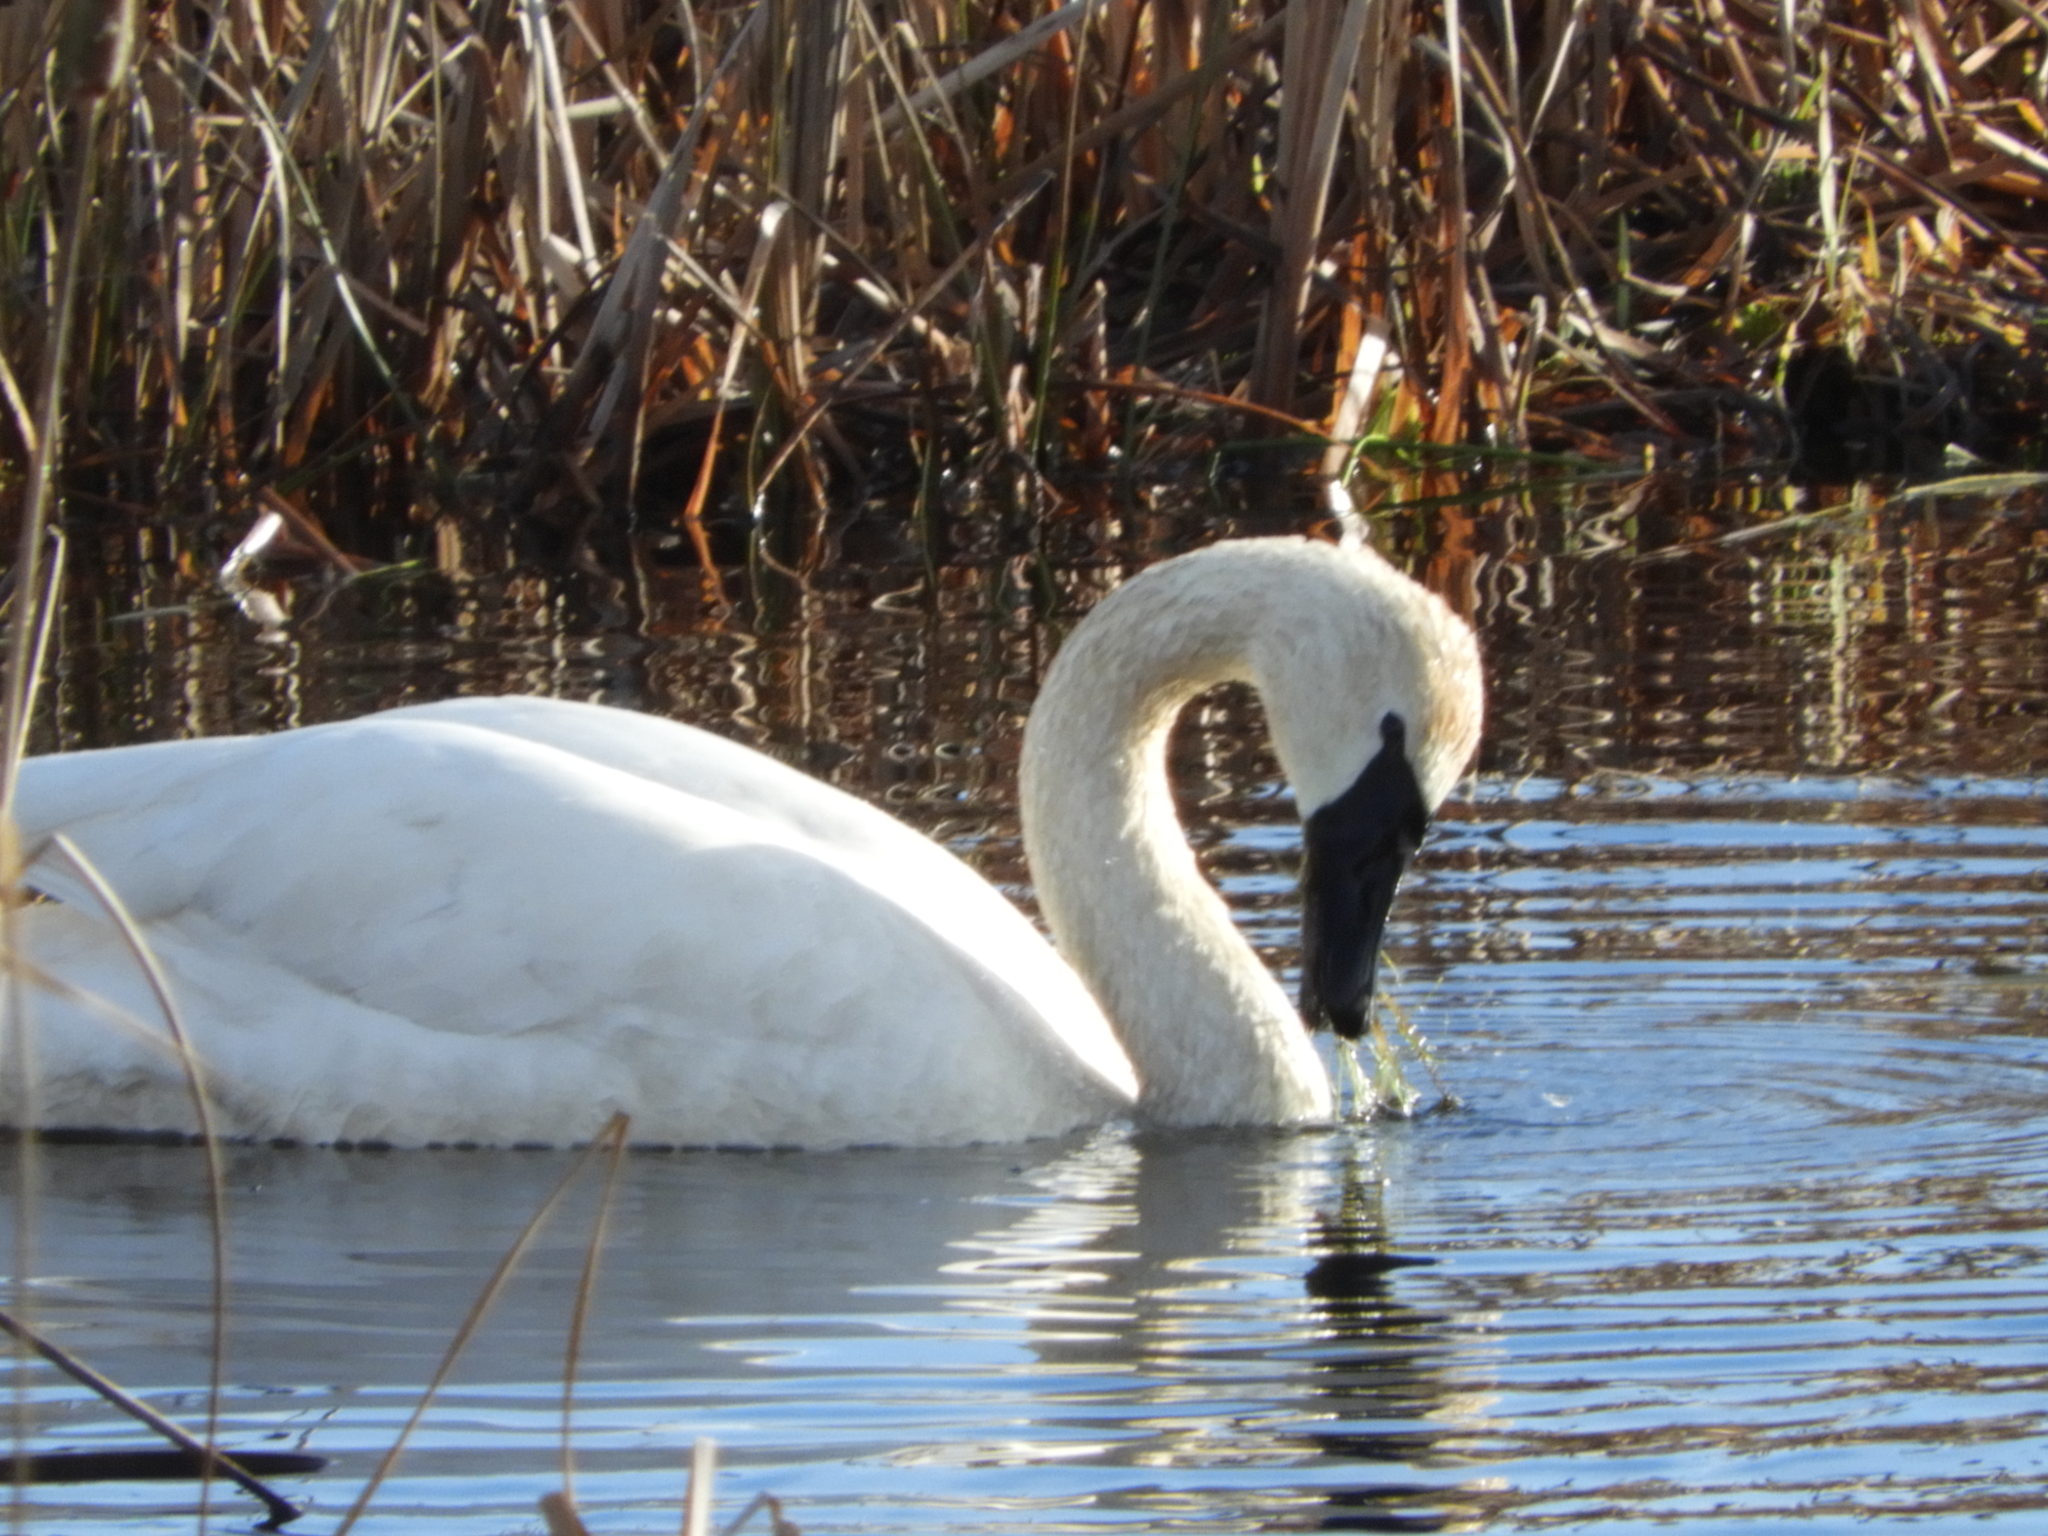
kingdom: Animalia
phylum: Chordata
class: Aves
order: Anseriformes
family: Anatidae
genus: Cygnus
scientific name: Cygnus buccinator
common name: Trumpeter swan
